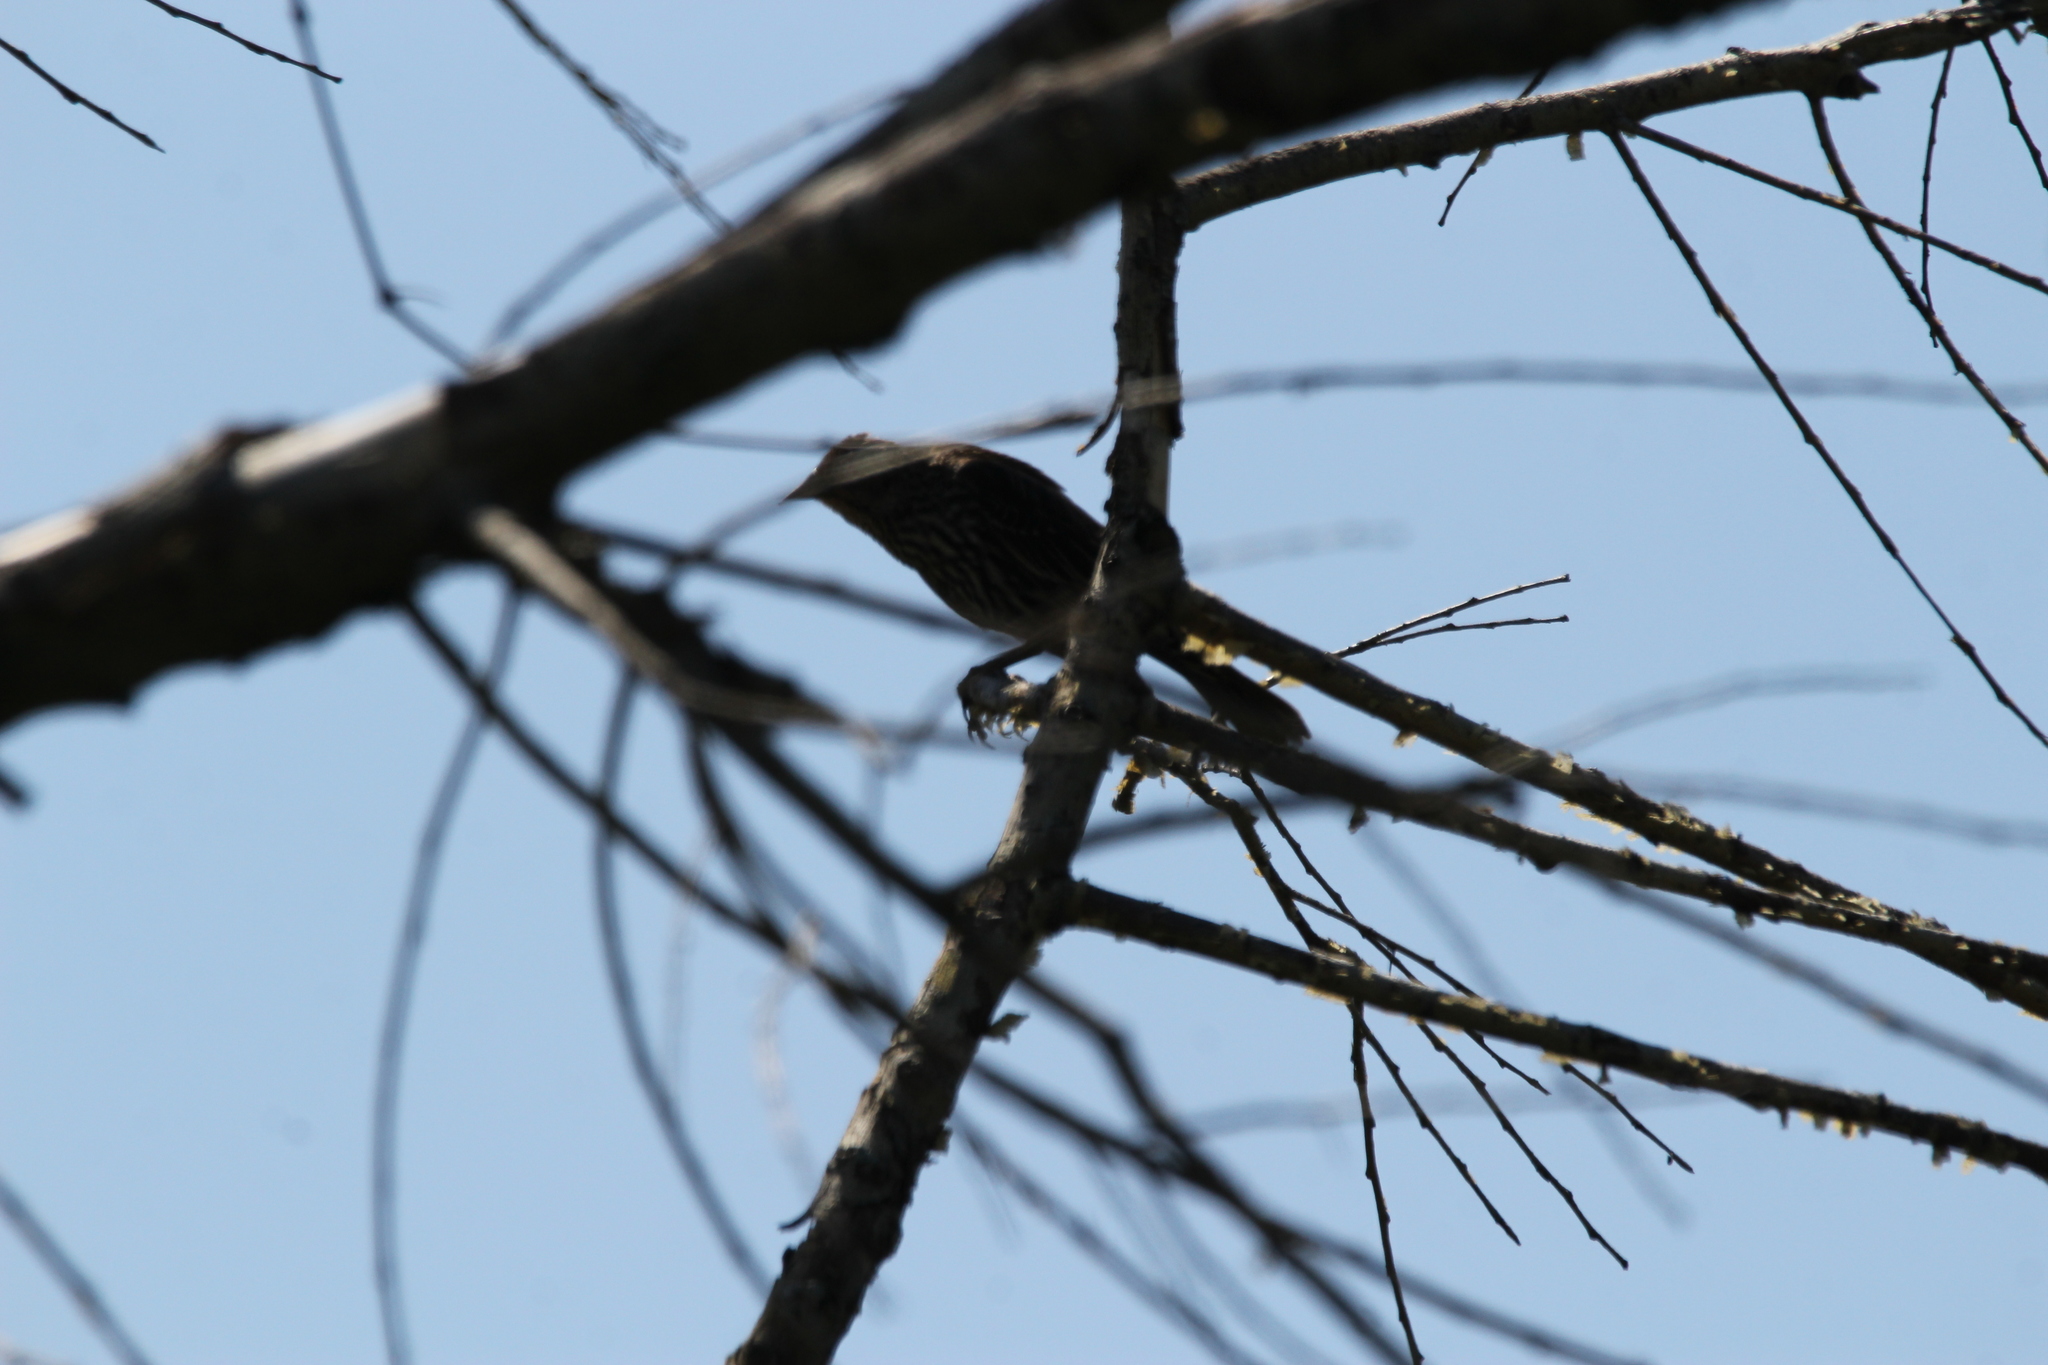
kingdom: Animalia
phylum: Chordata
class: Aves
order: Passeriformes
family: Icteridae
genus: Agelaius
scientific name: Agelaius phoeniceus
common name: Red-winged blackbird
